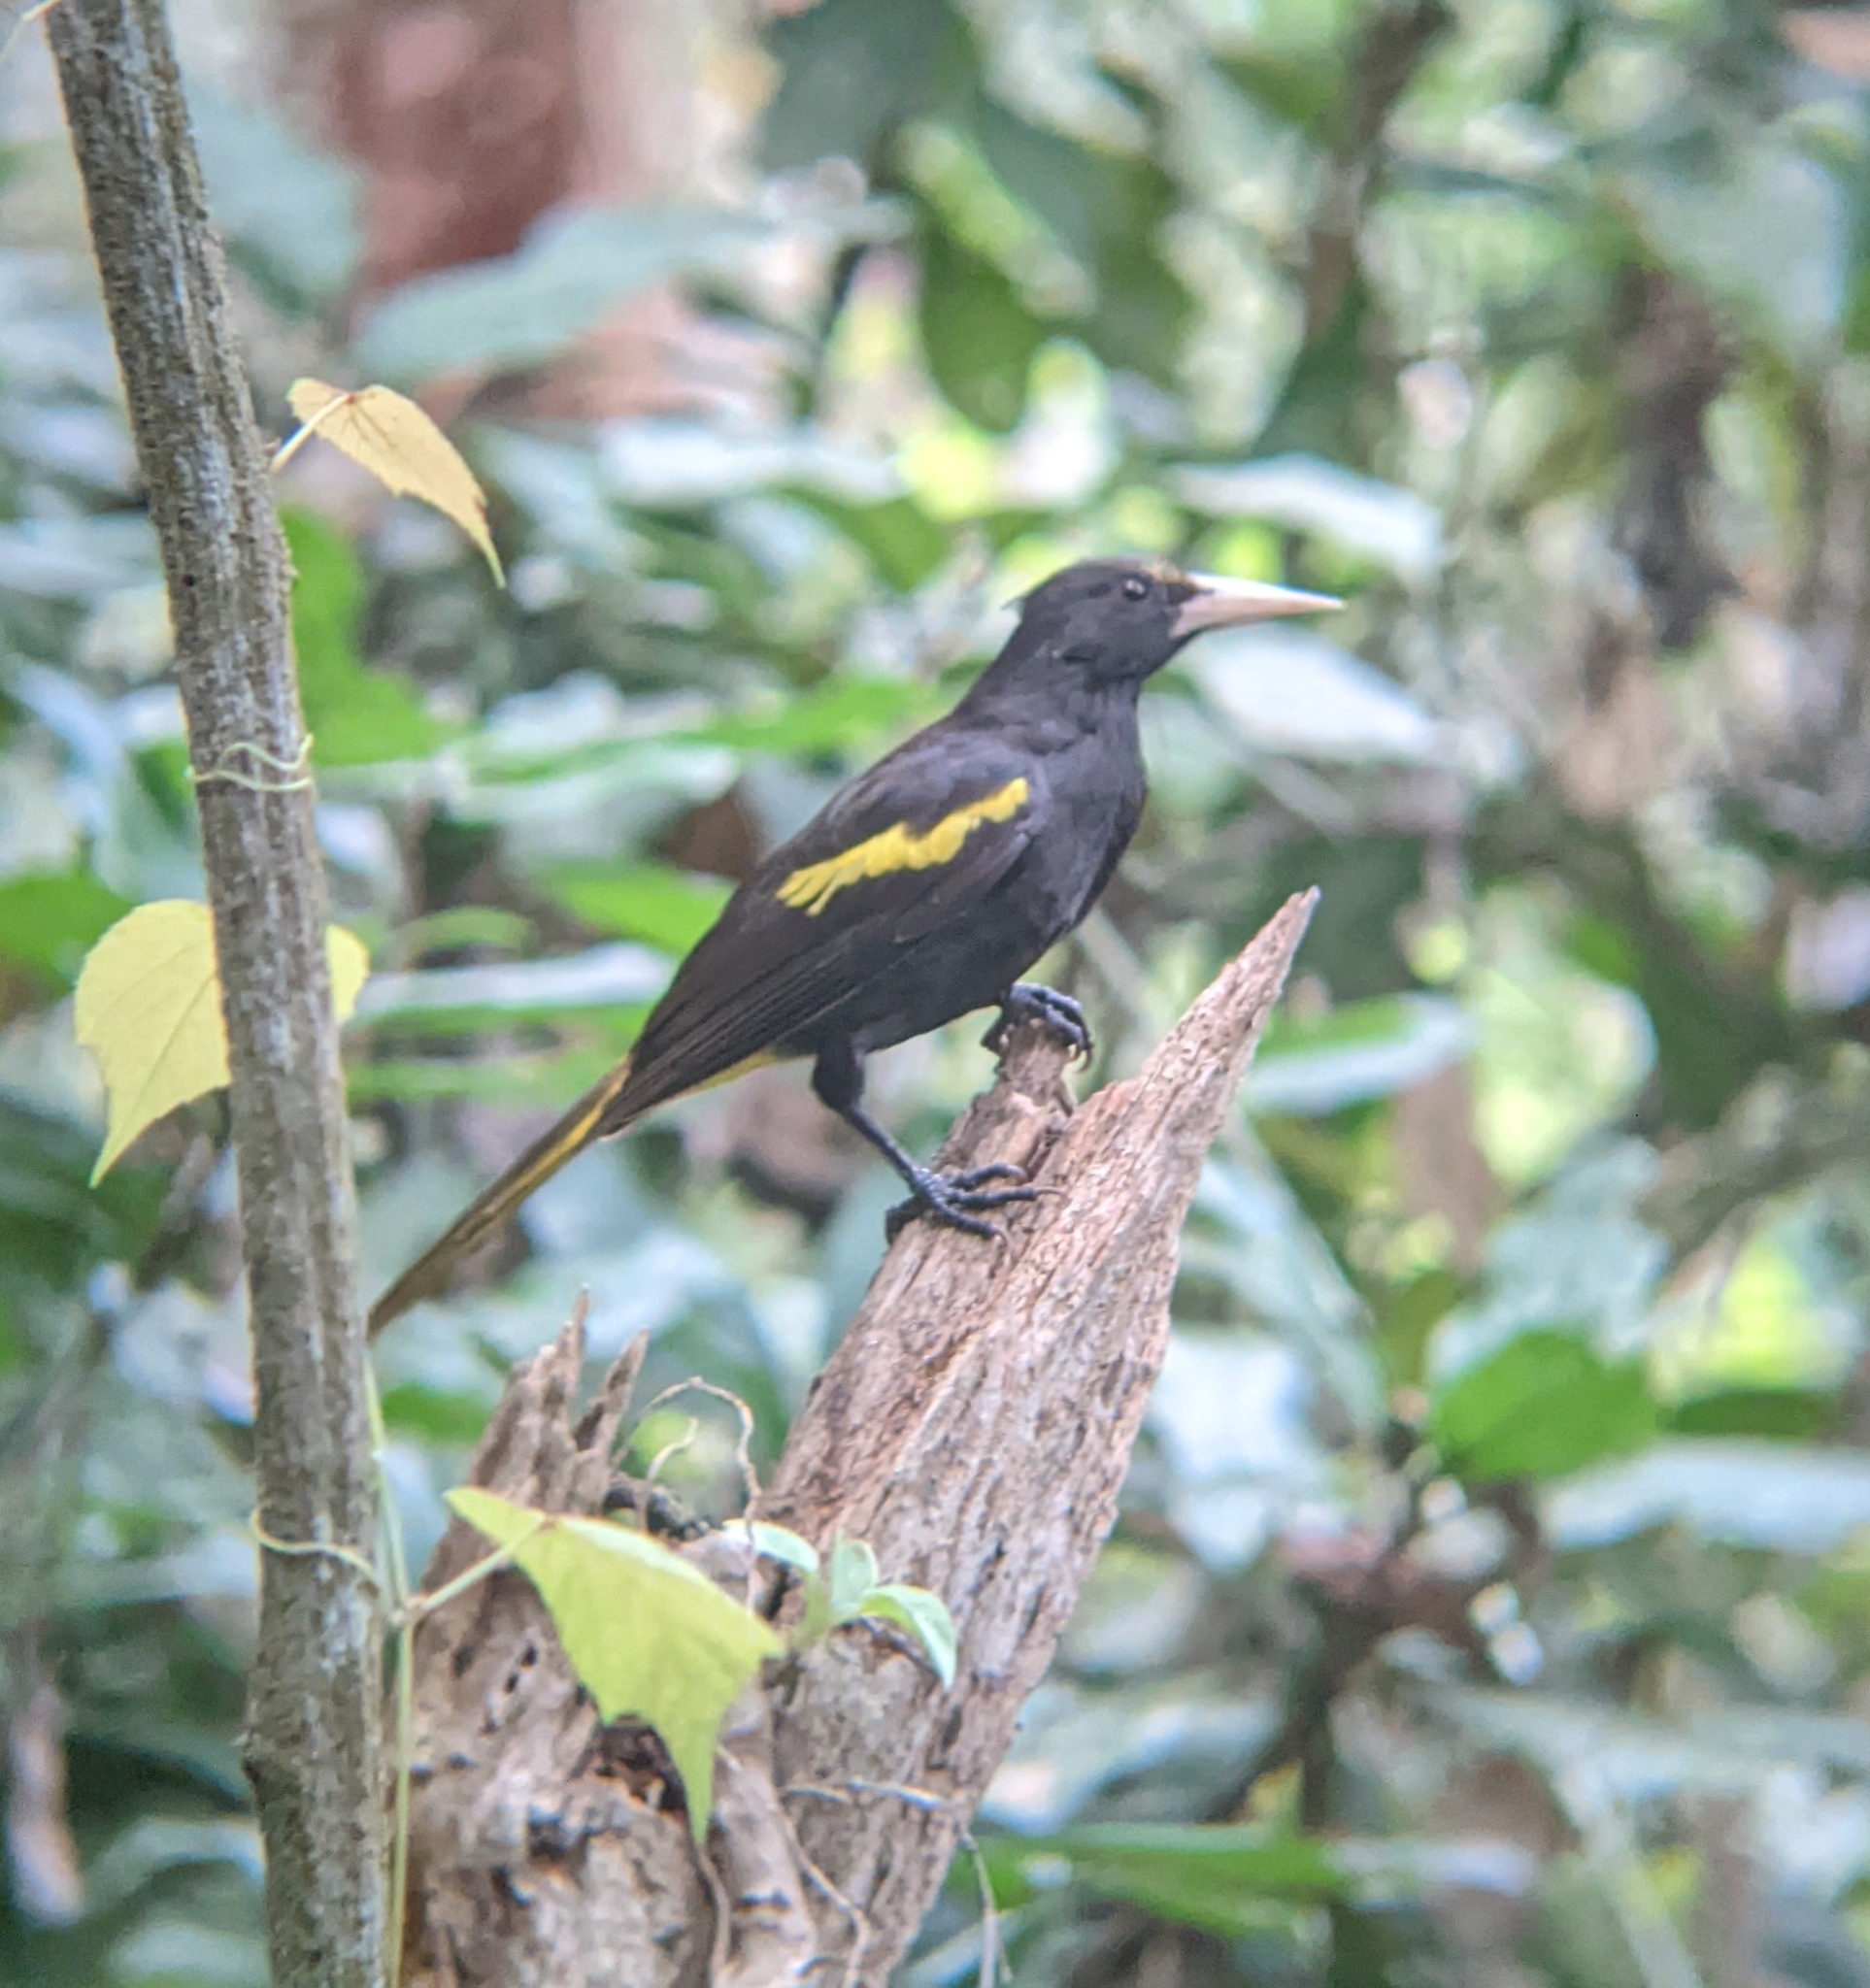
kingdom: Animalia
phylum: Chordata
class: Aves
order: Passeriformes
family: Icteridae
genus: Cacicus
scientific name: Cacicus melanicterus
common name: Yellow-winged cacique
